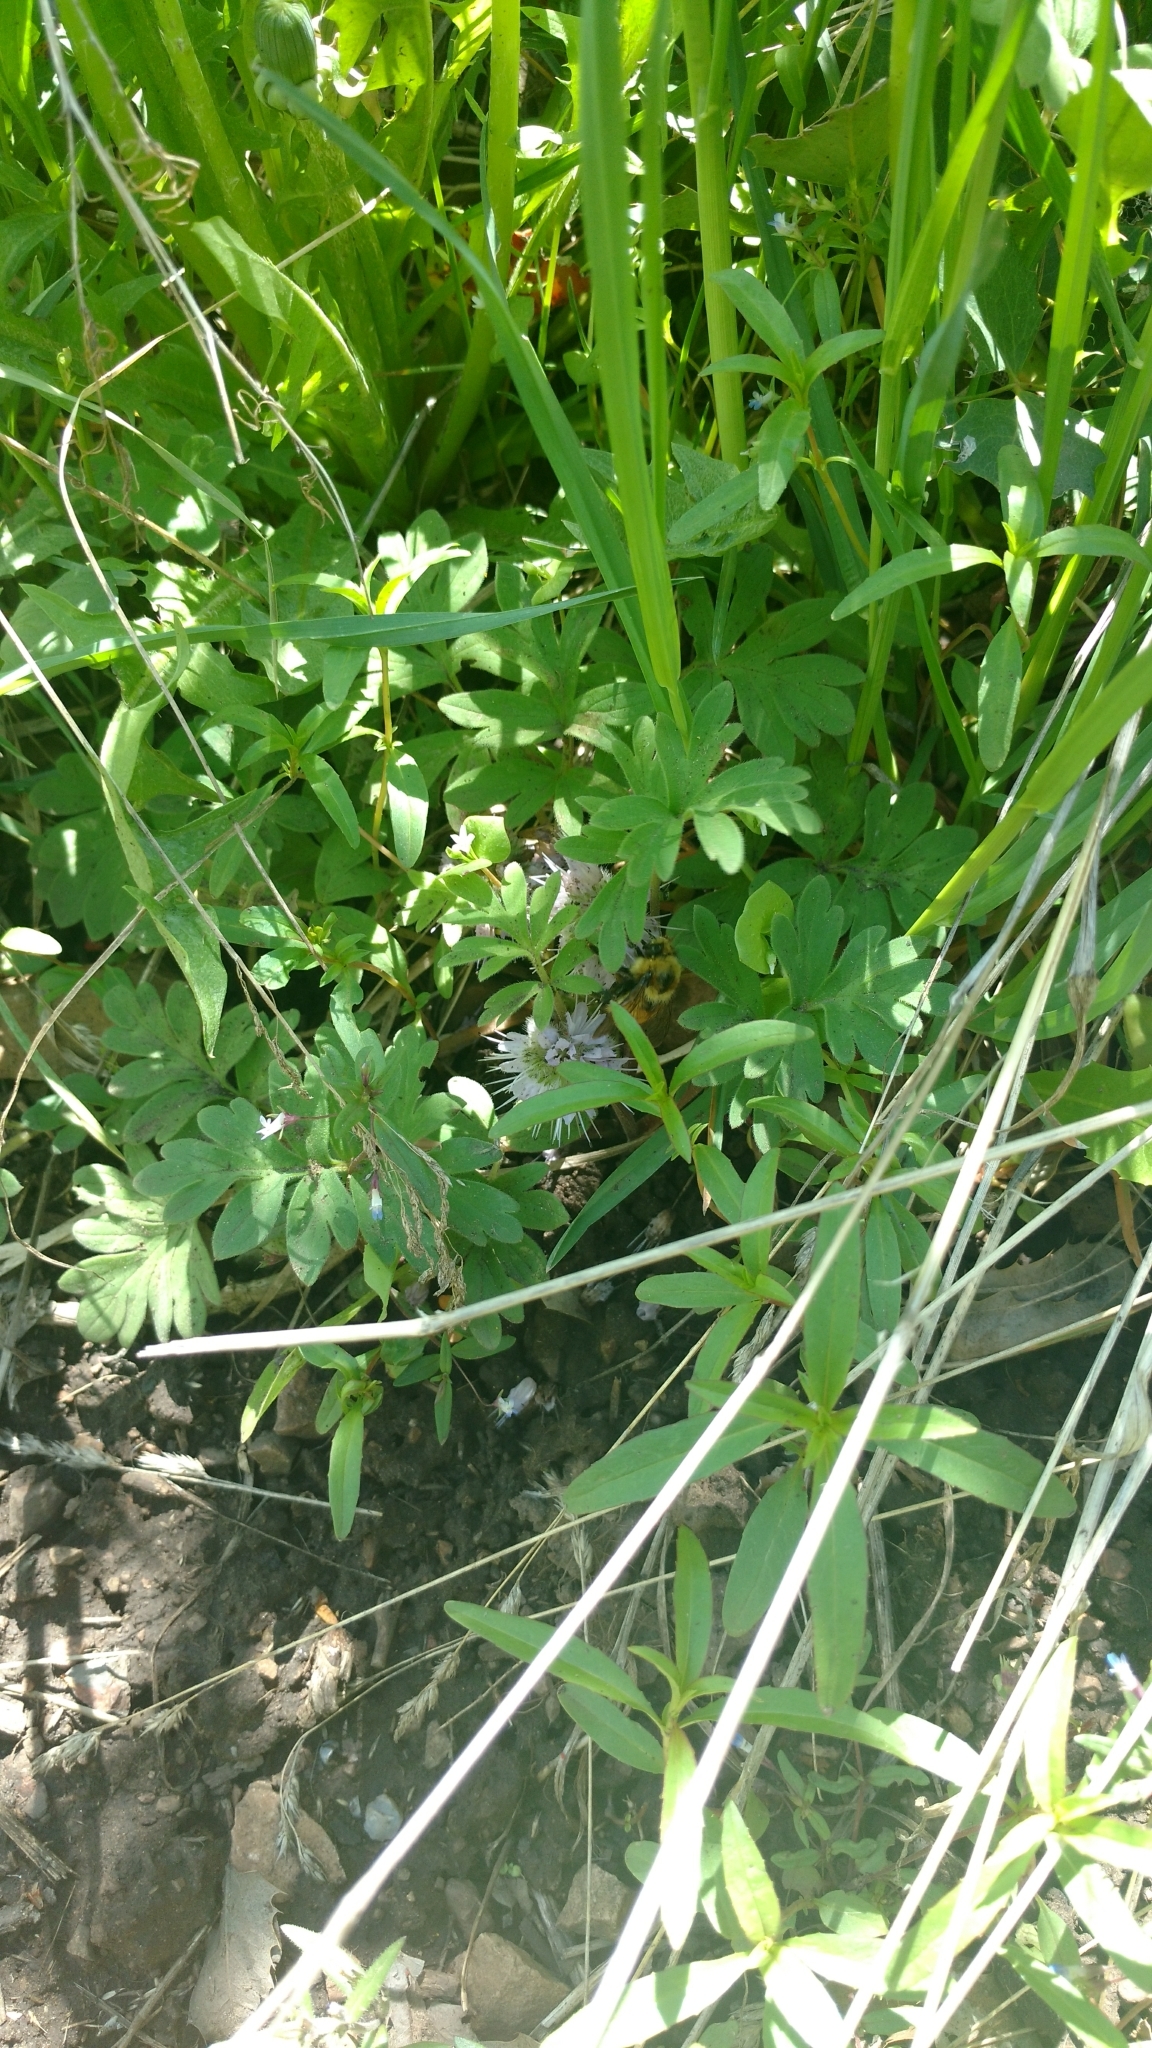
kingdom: Animalia
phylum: Arthropoda
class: Insecta
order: Hymenoptera
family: Apidae
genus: Bombus
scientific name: Bombus centralis
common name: Central bumble bee
